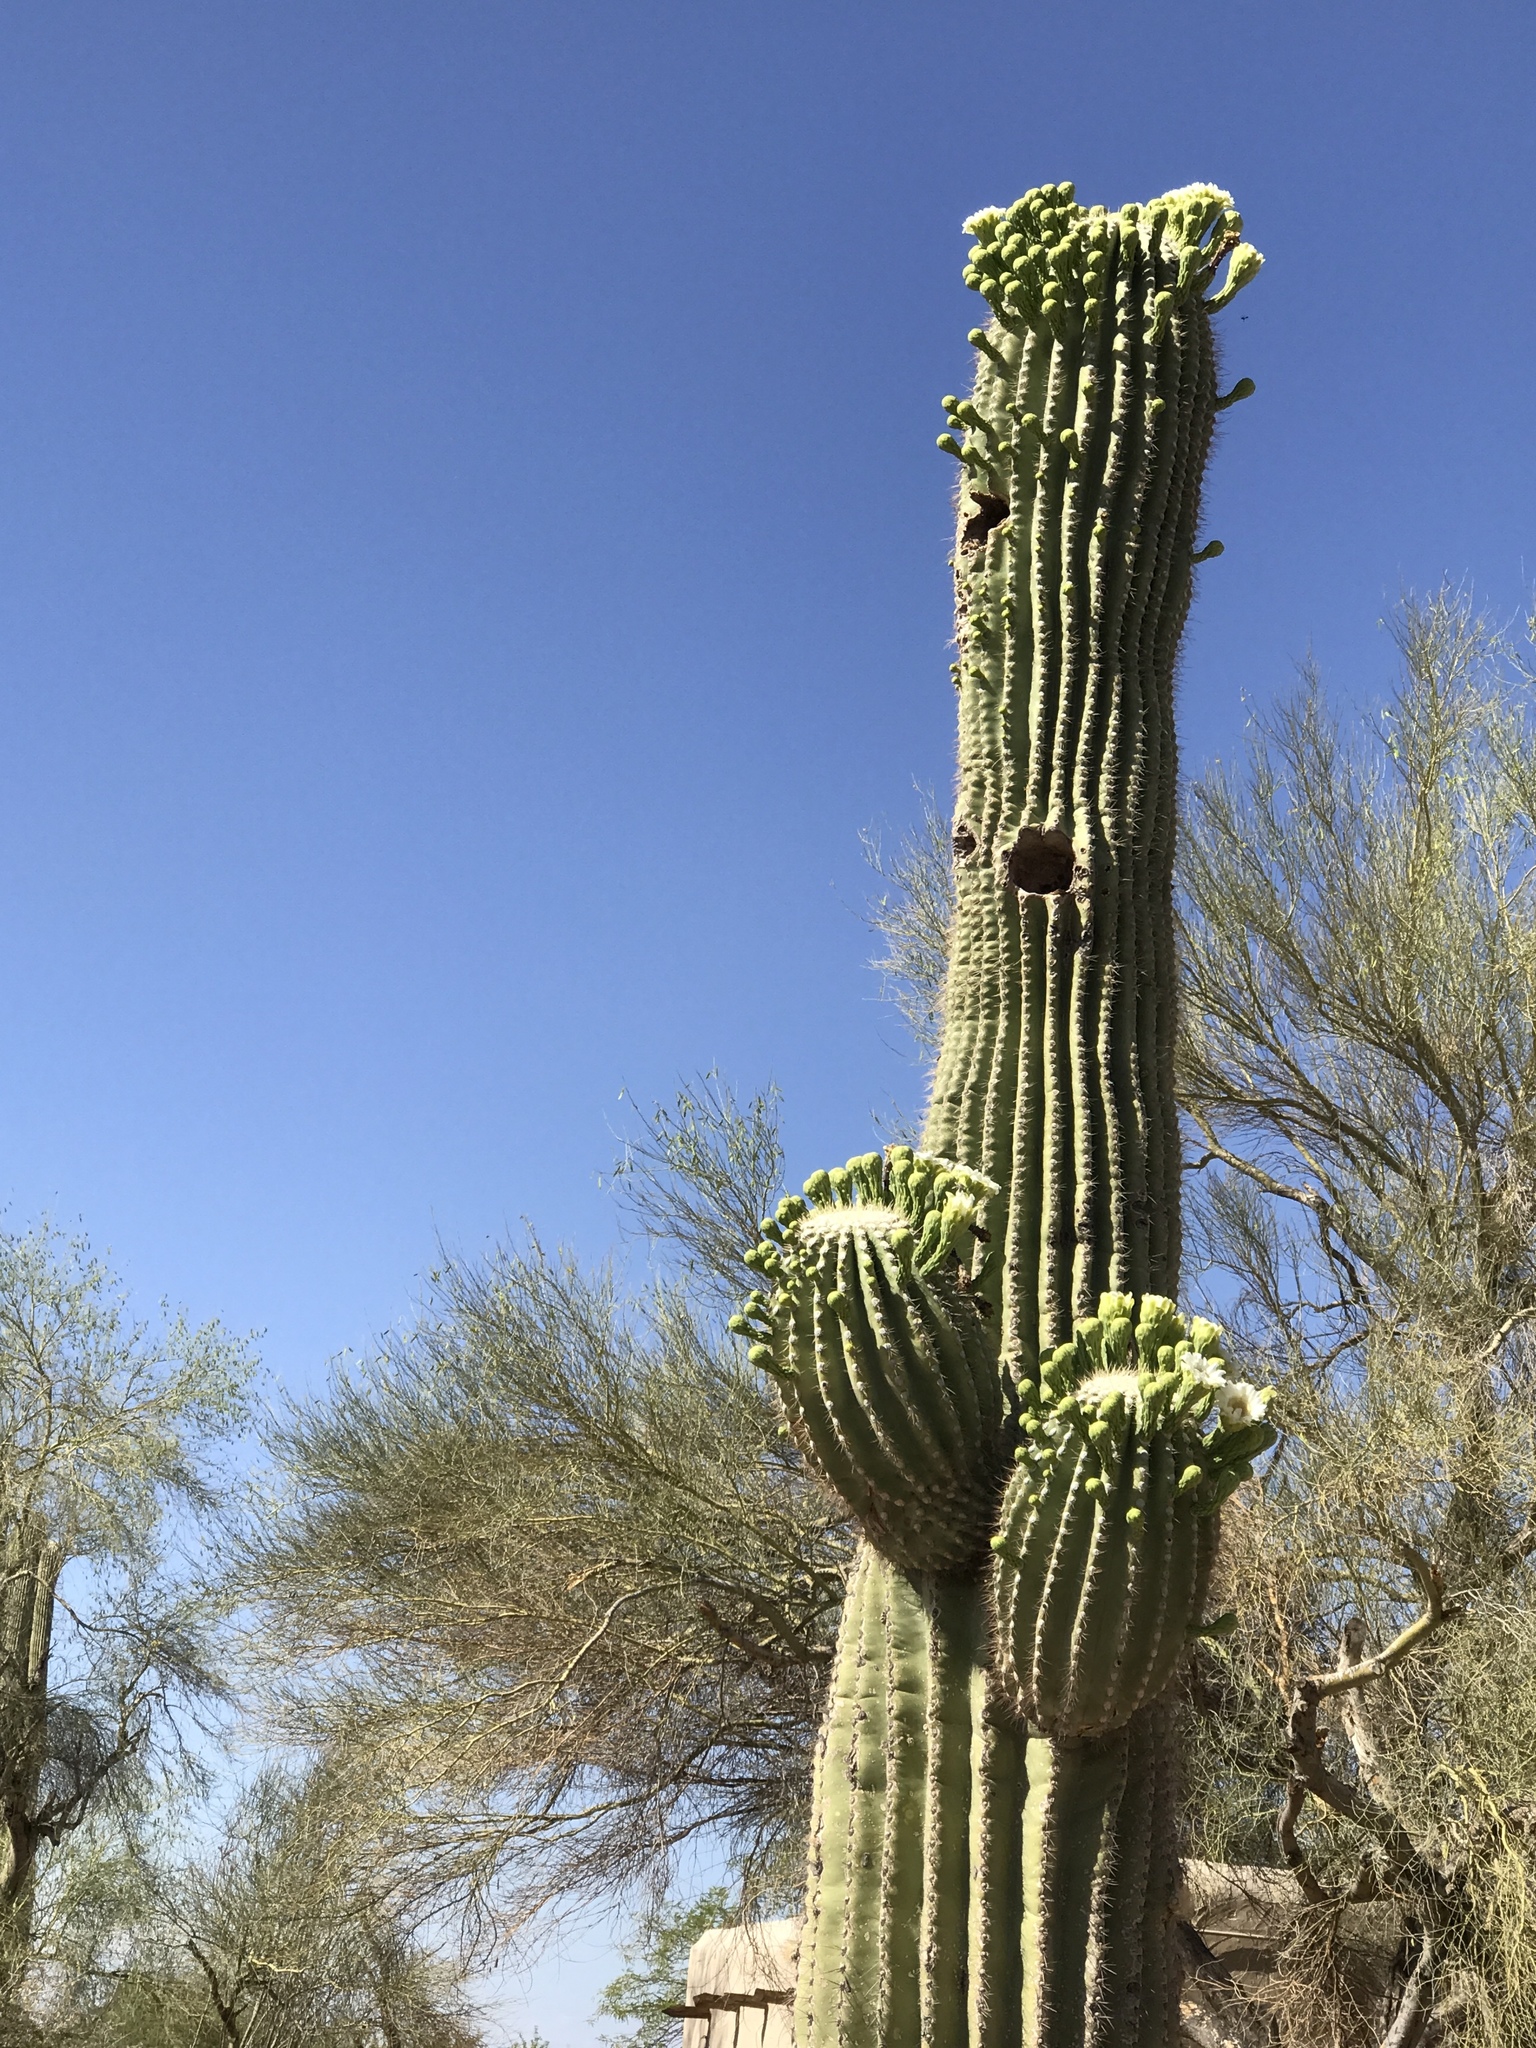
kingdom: Plantae
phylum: Tracheophyta
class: Magnoliopsida
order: Caryophyllales
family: Cactaceae
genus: Carnegiea
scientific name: Carnegiea gigantea
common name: Saguaro
